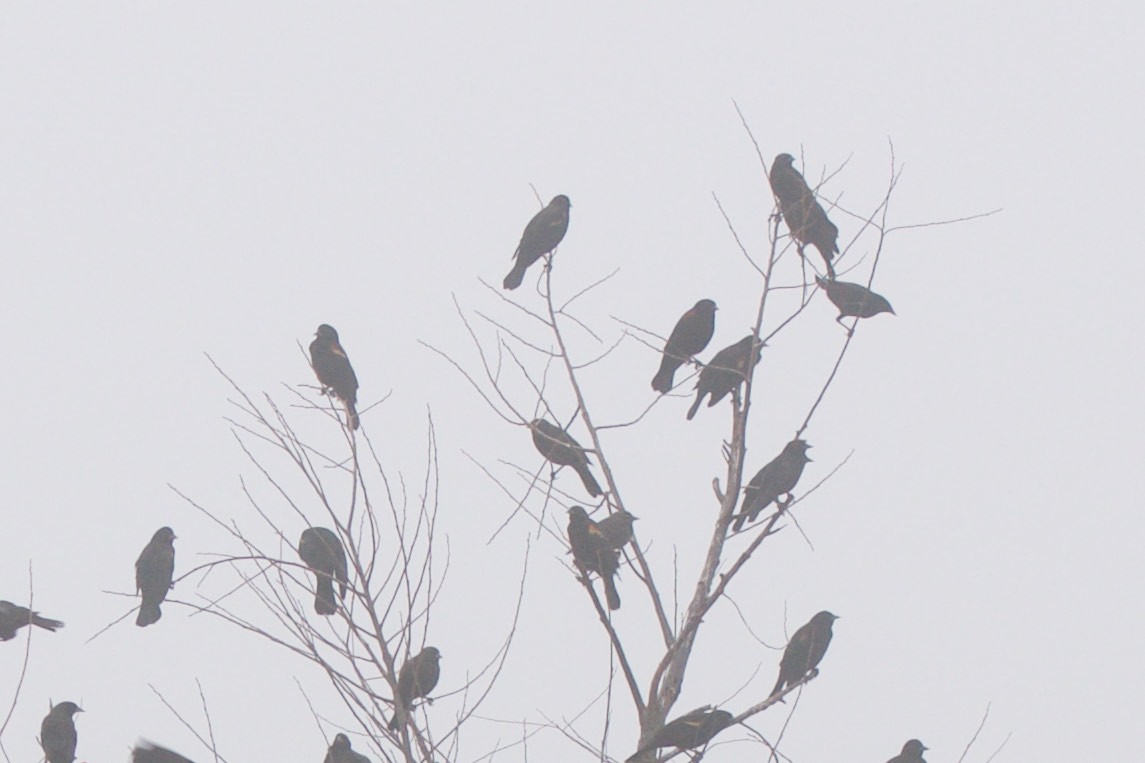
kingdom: Animalia
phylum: Chordata
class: Aves
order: Passeriformes
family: Icteridae
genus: Agelaius
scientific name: Agelaius phoeniceus
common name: Red-winged blackbird
